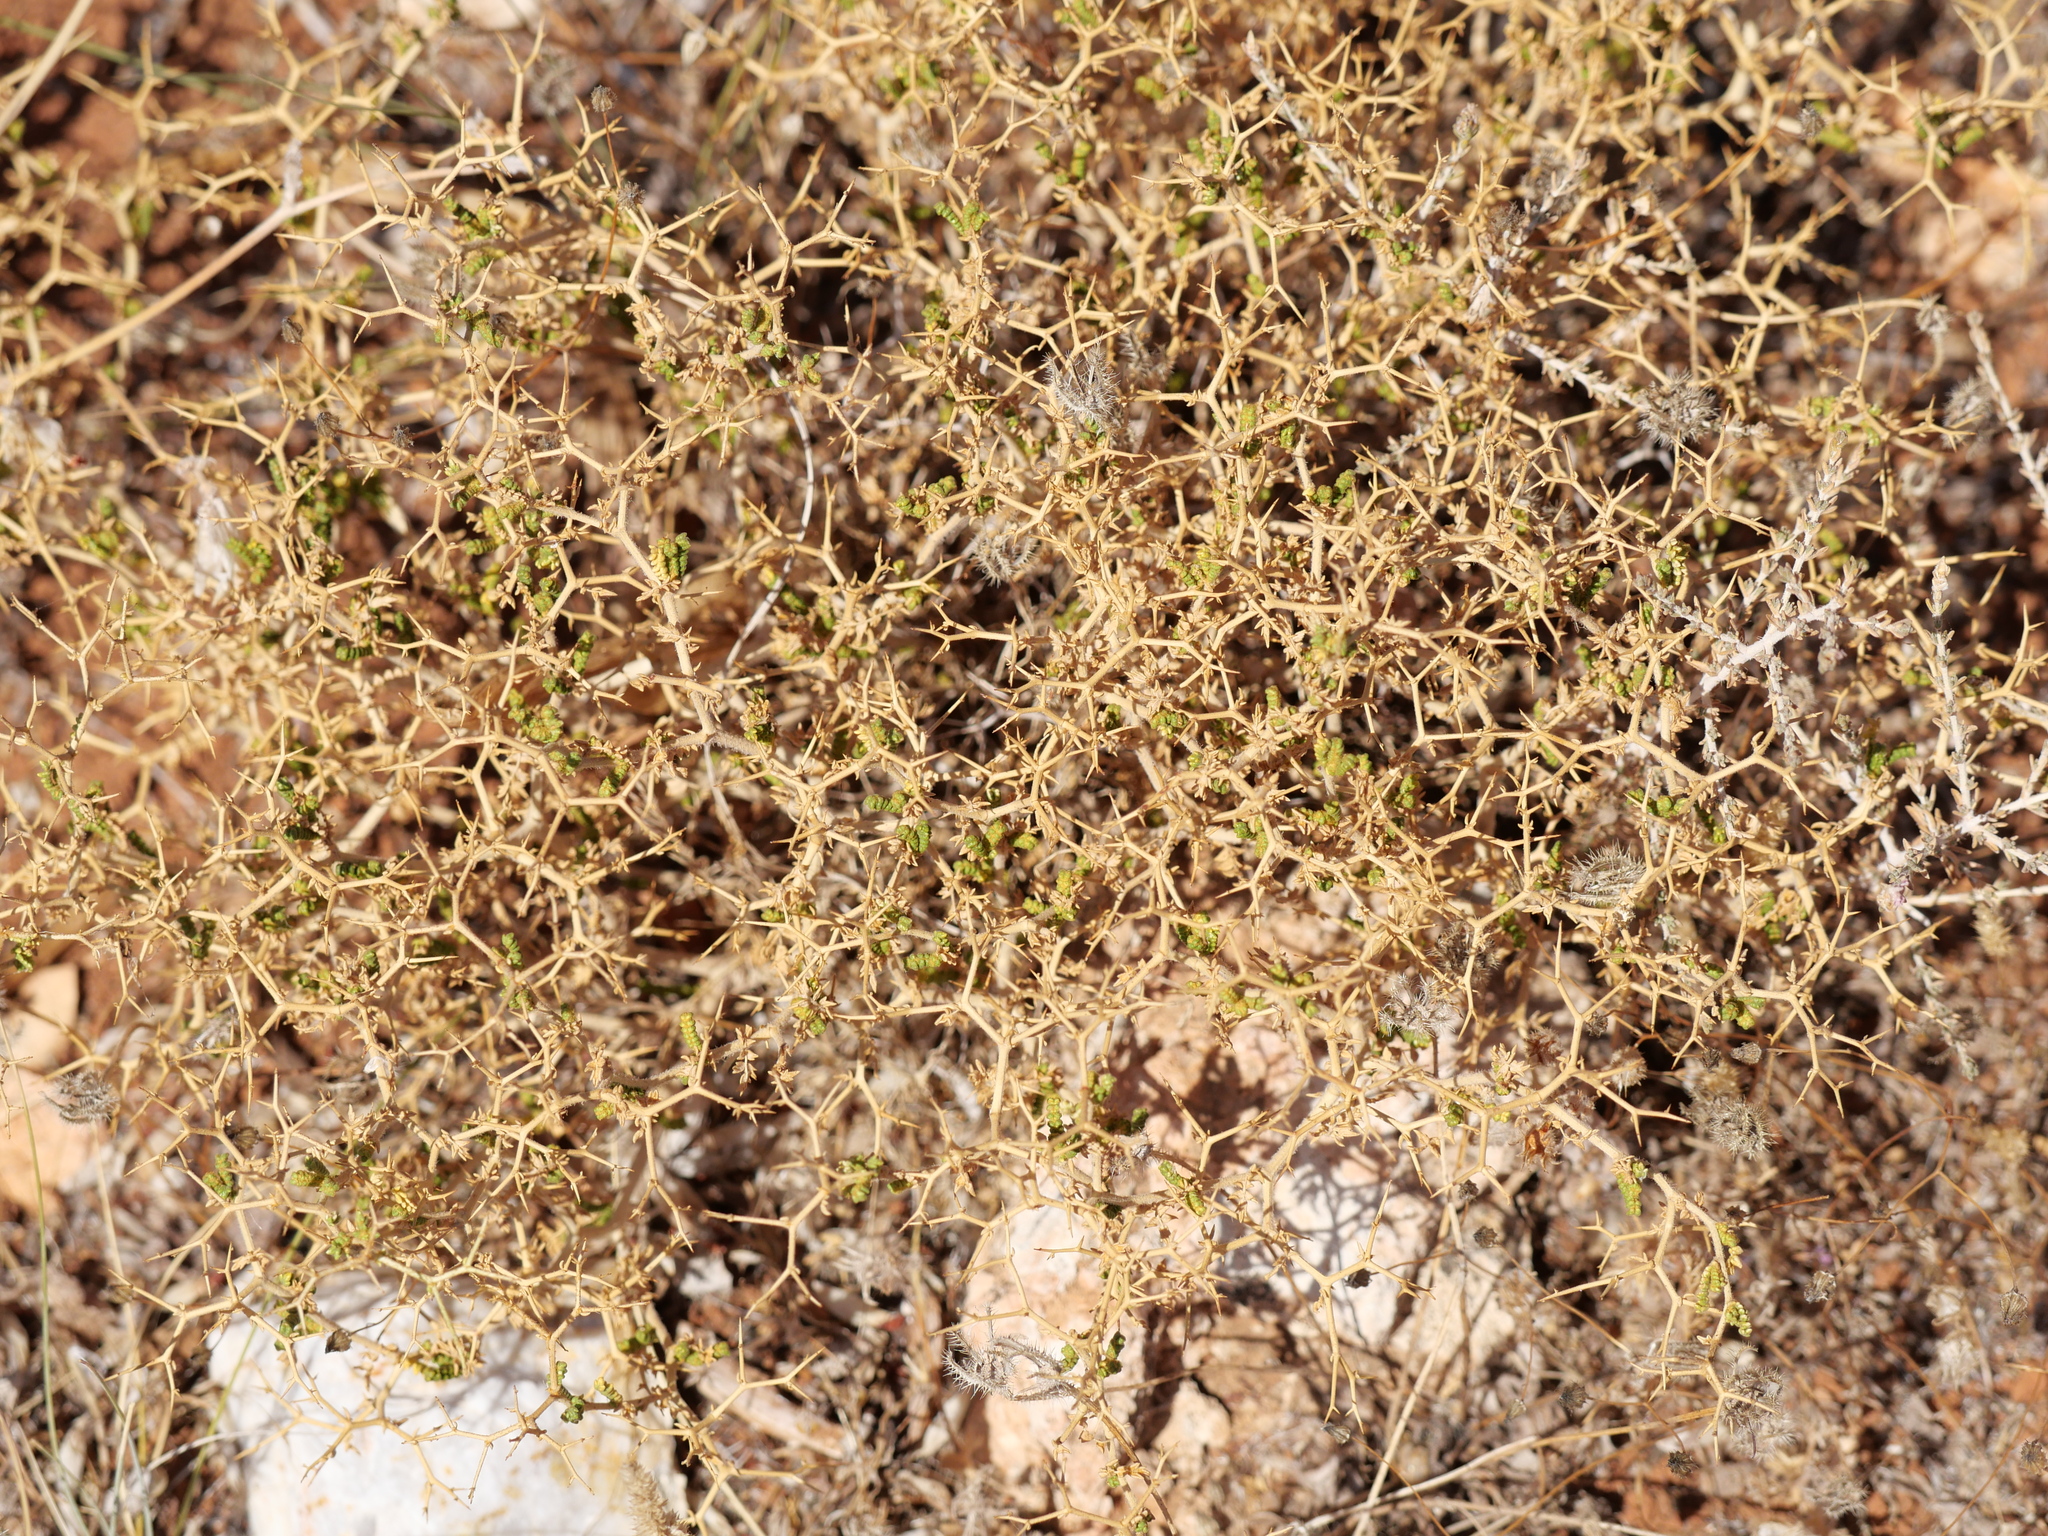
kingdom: Plantae
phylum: Tracheophyta
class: Magnoliopsida
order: Rosales
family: Rosaceae
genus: Sarcopoterium
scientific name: Sarcopoterium spinosum
